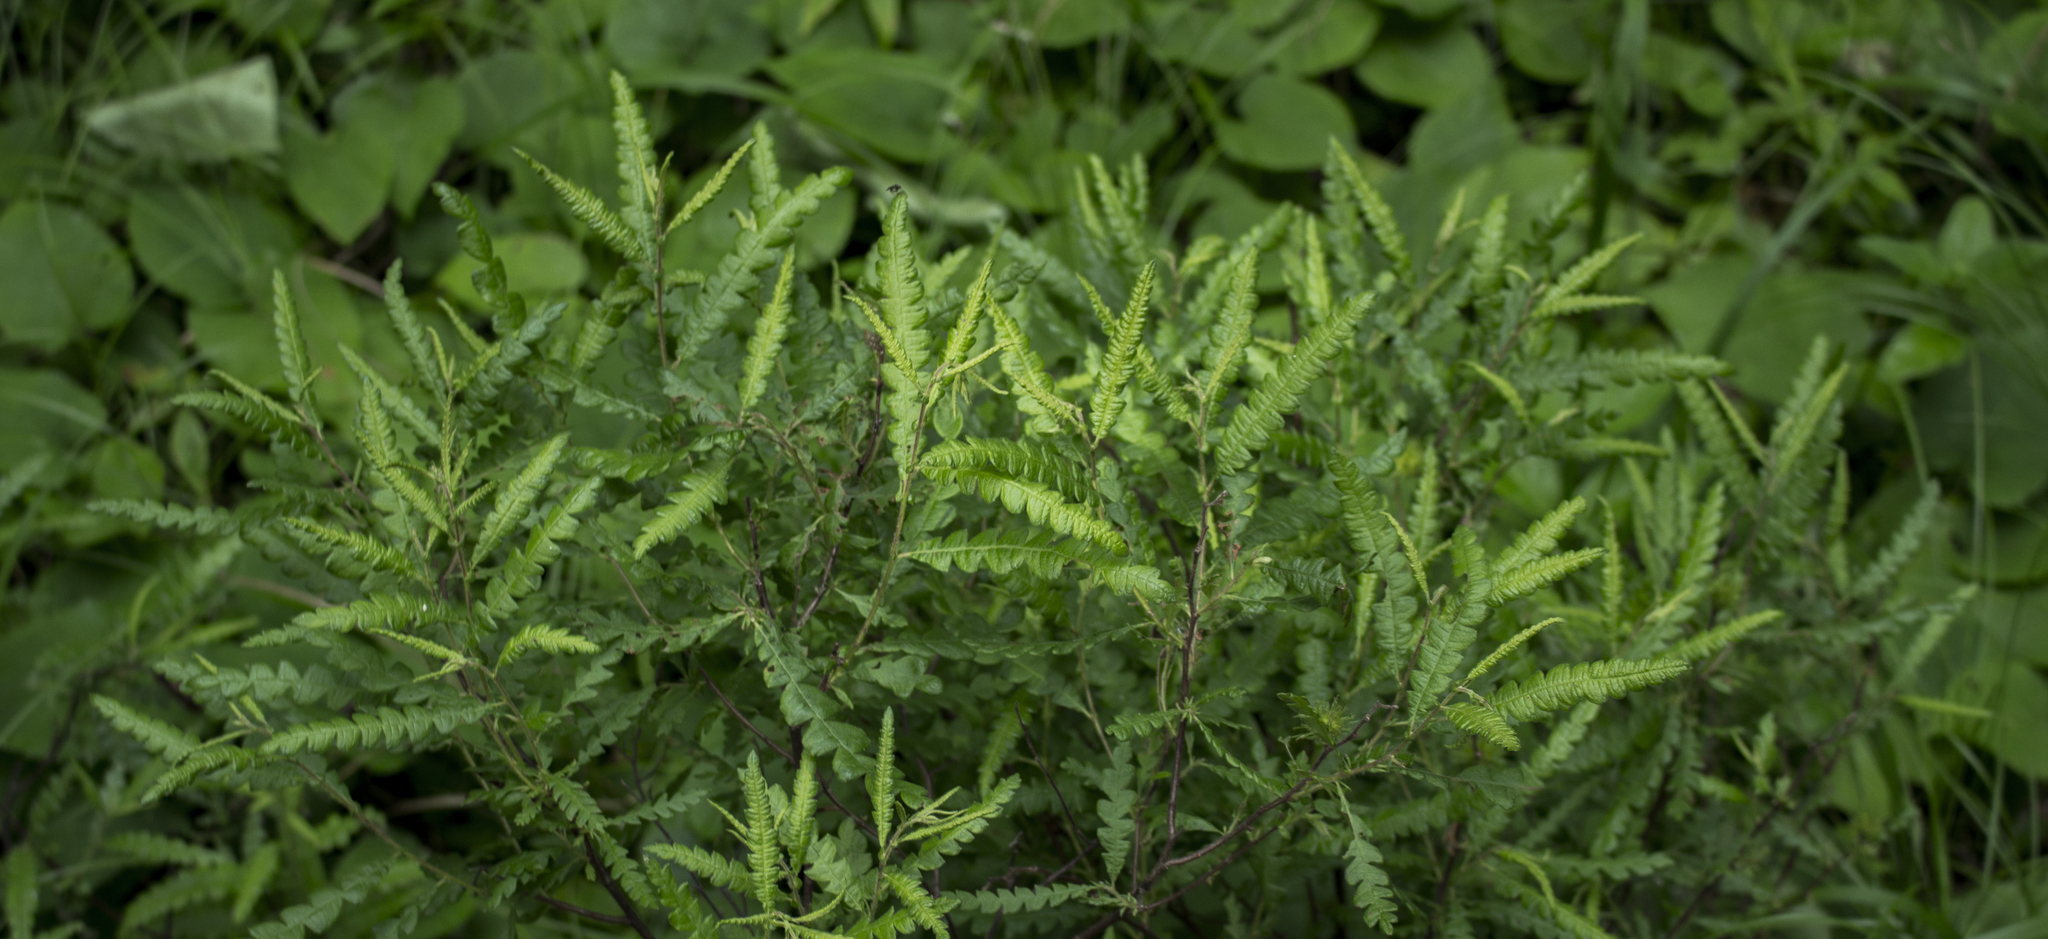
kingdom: Plantae
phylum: Tracheophyta
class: Magnoliopsida
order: Fagales
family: Myricaceae
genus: Comptonia
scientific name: Comptonia peregrina
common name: Sweet-fern
